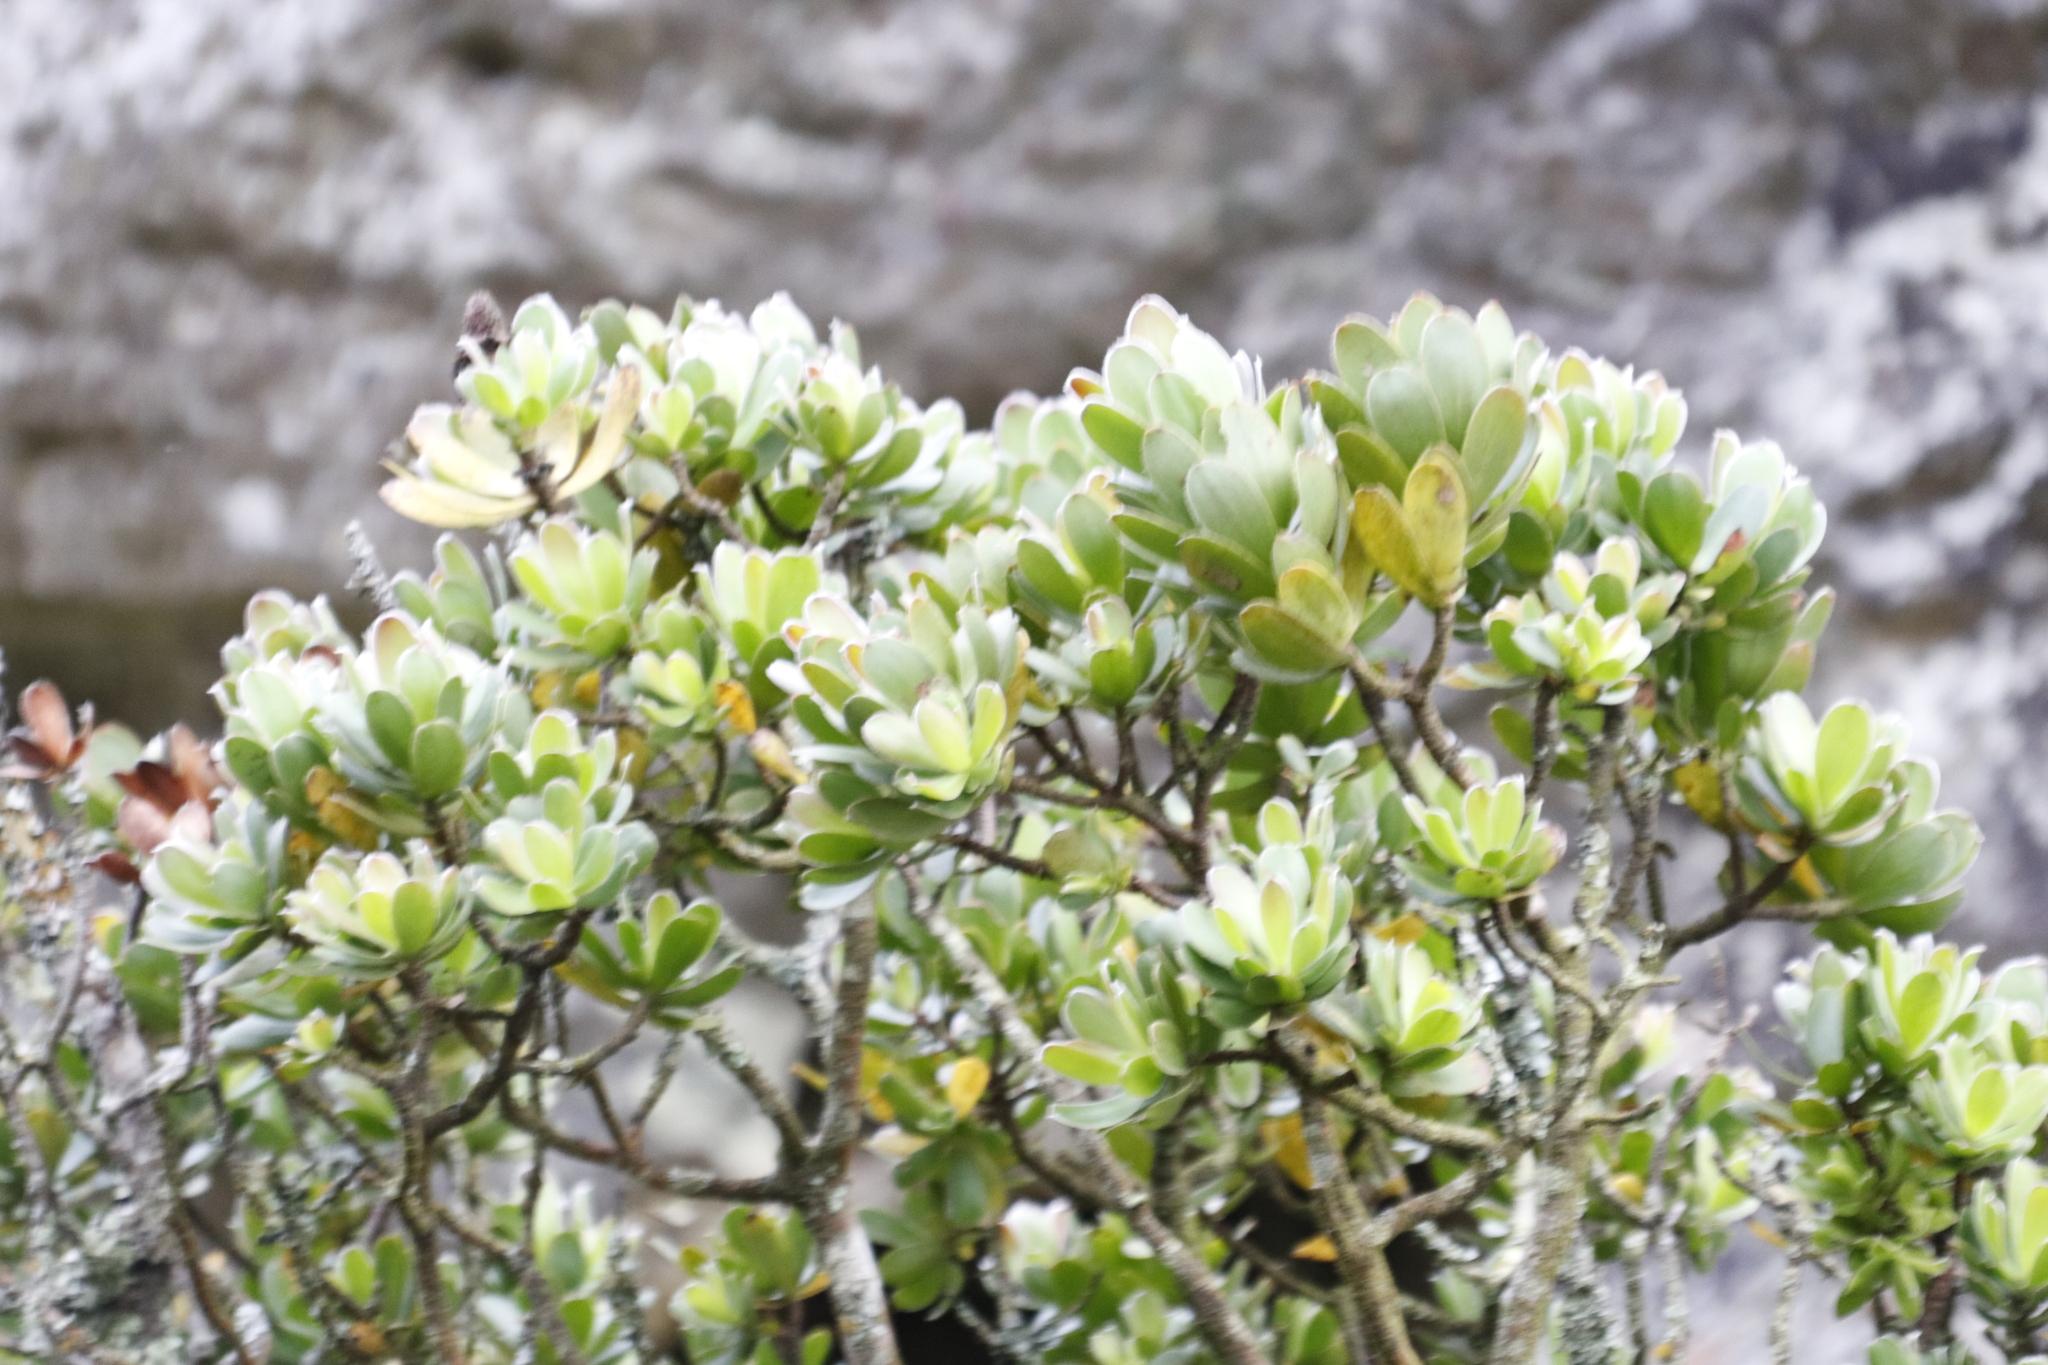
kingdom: Plantae
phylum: Tracheophyta
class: Magnoliopsida
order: Proteales
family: Proteaceae
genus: Leucadendron
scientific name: Leucadendron strobilinum
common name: Mountain rose
